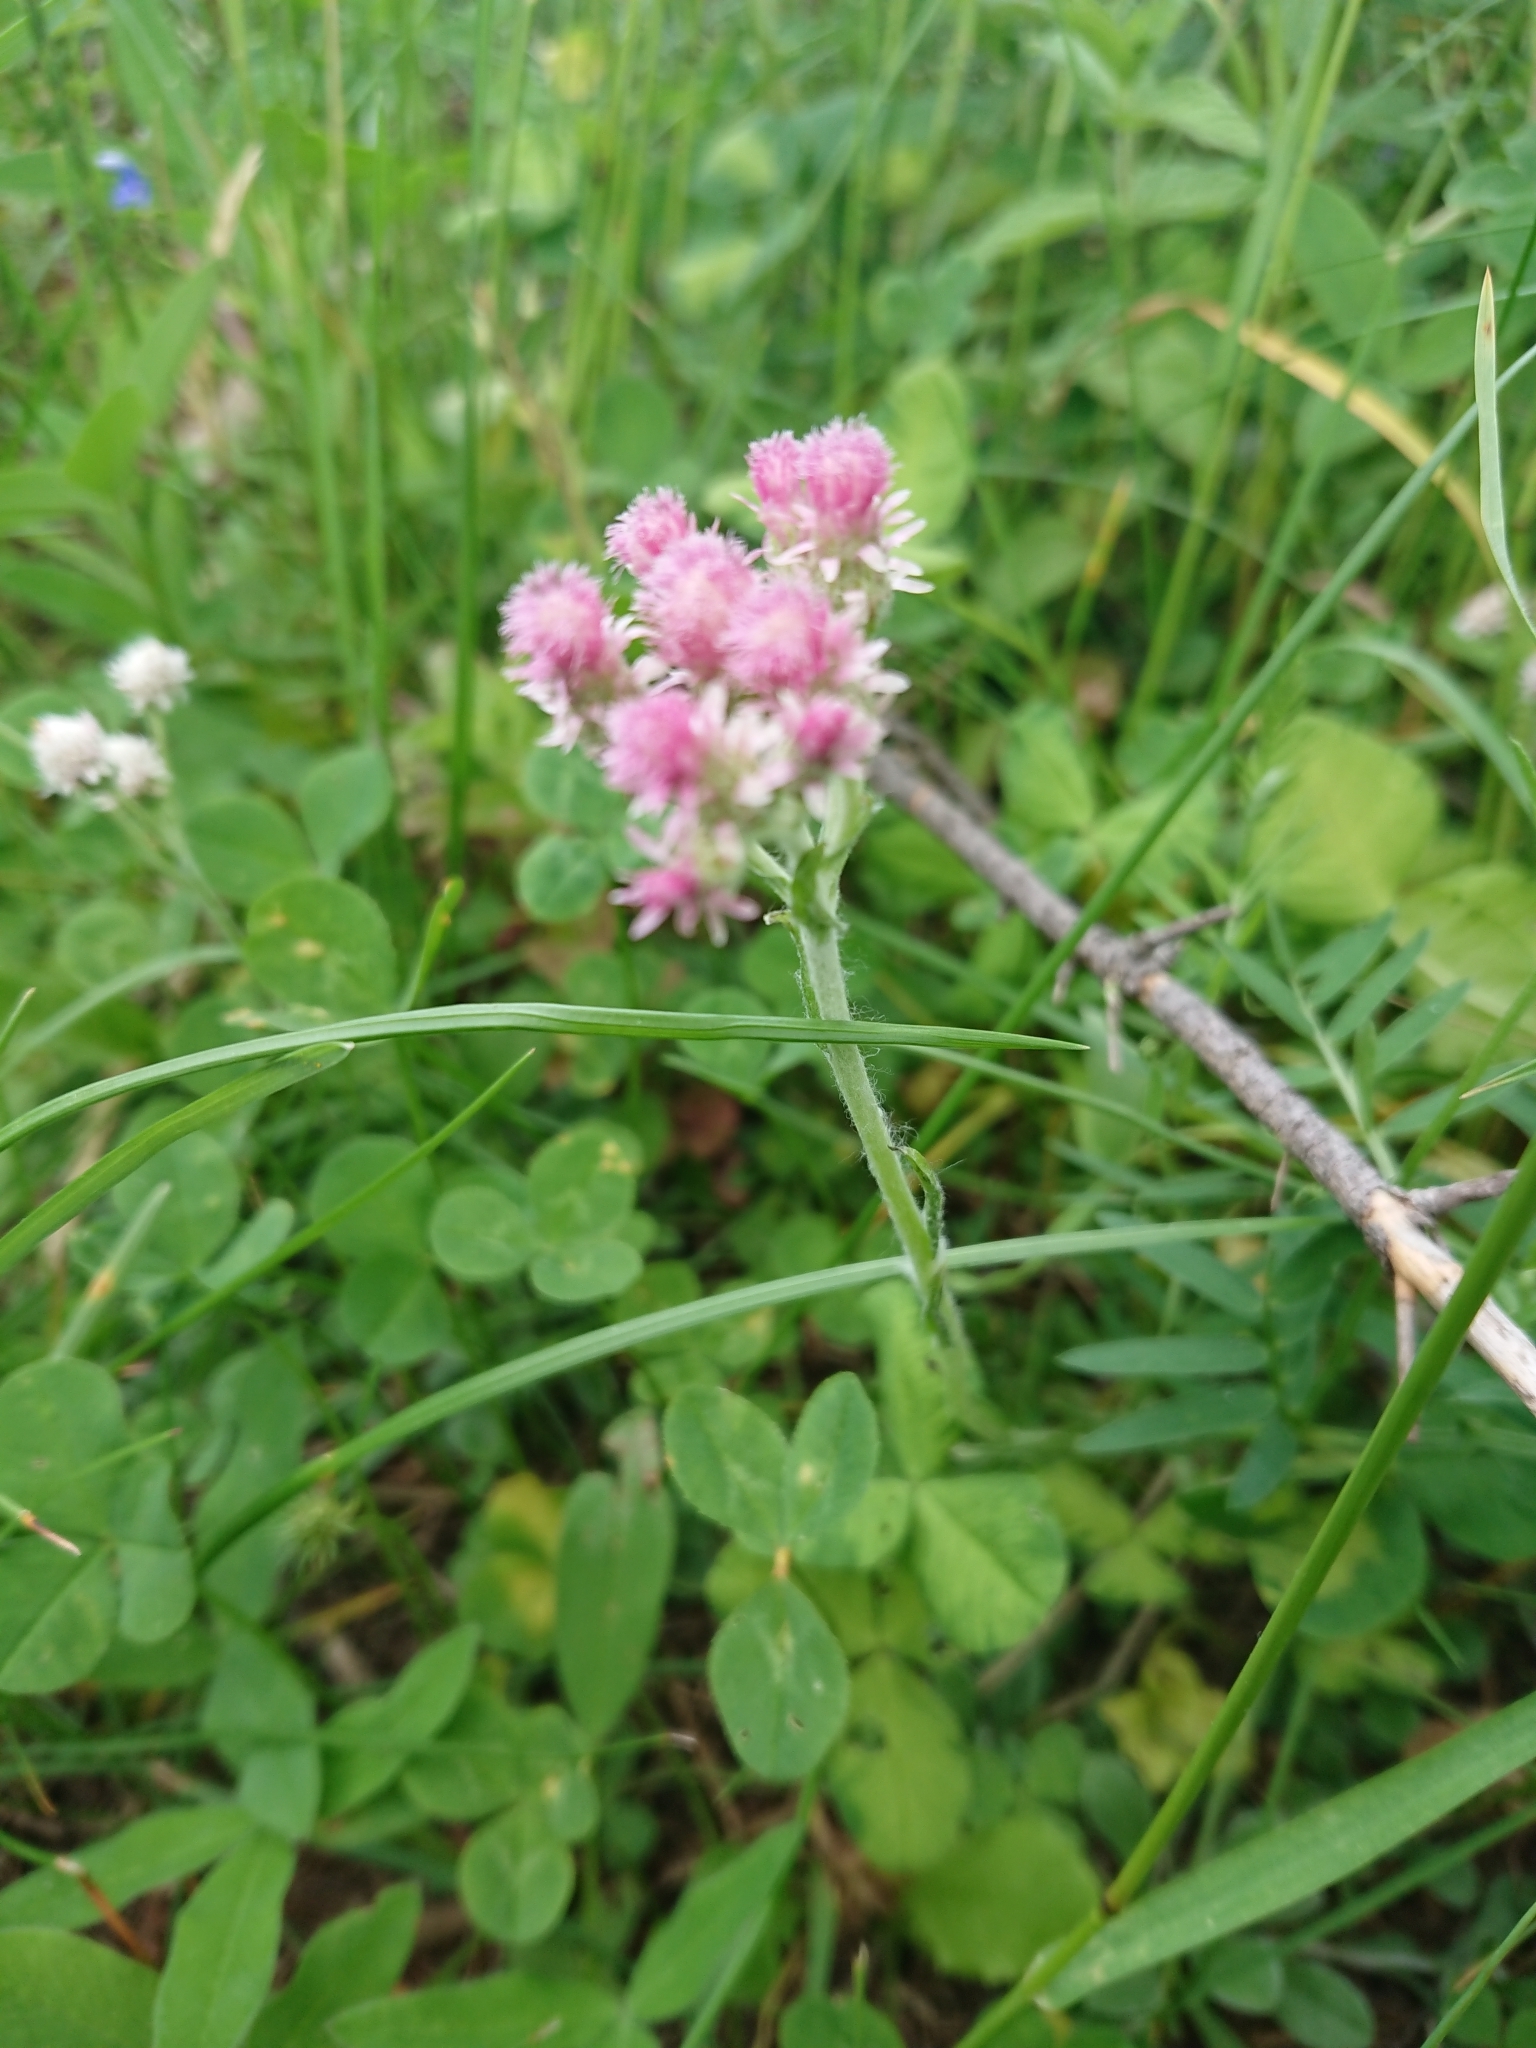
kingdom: Plantae
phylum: Tracheophyta
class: Magnoliopsida
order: Asterales
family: Asteraceae
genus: Antennaria
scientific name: Antennaria dioica
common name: Mountain everlasting
